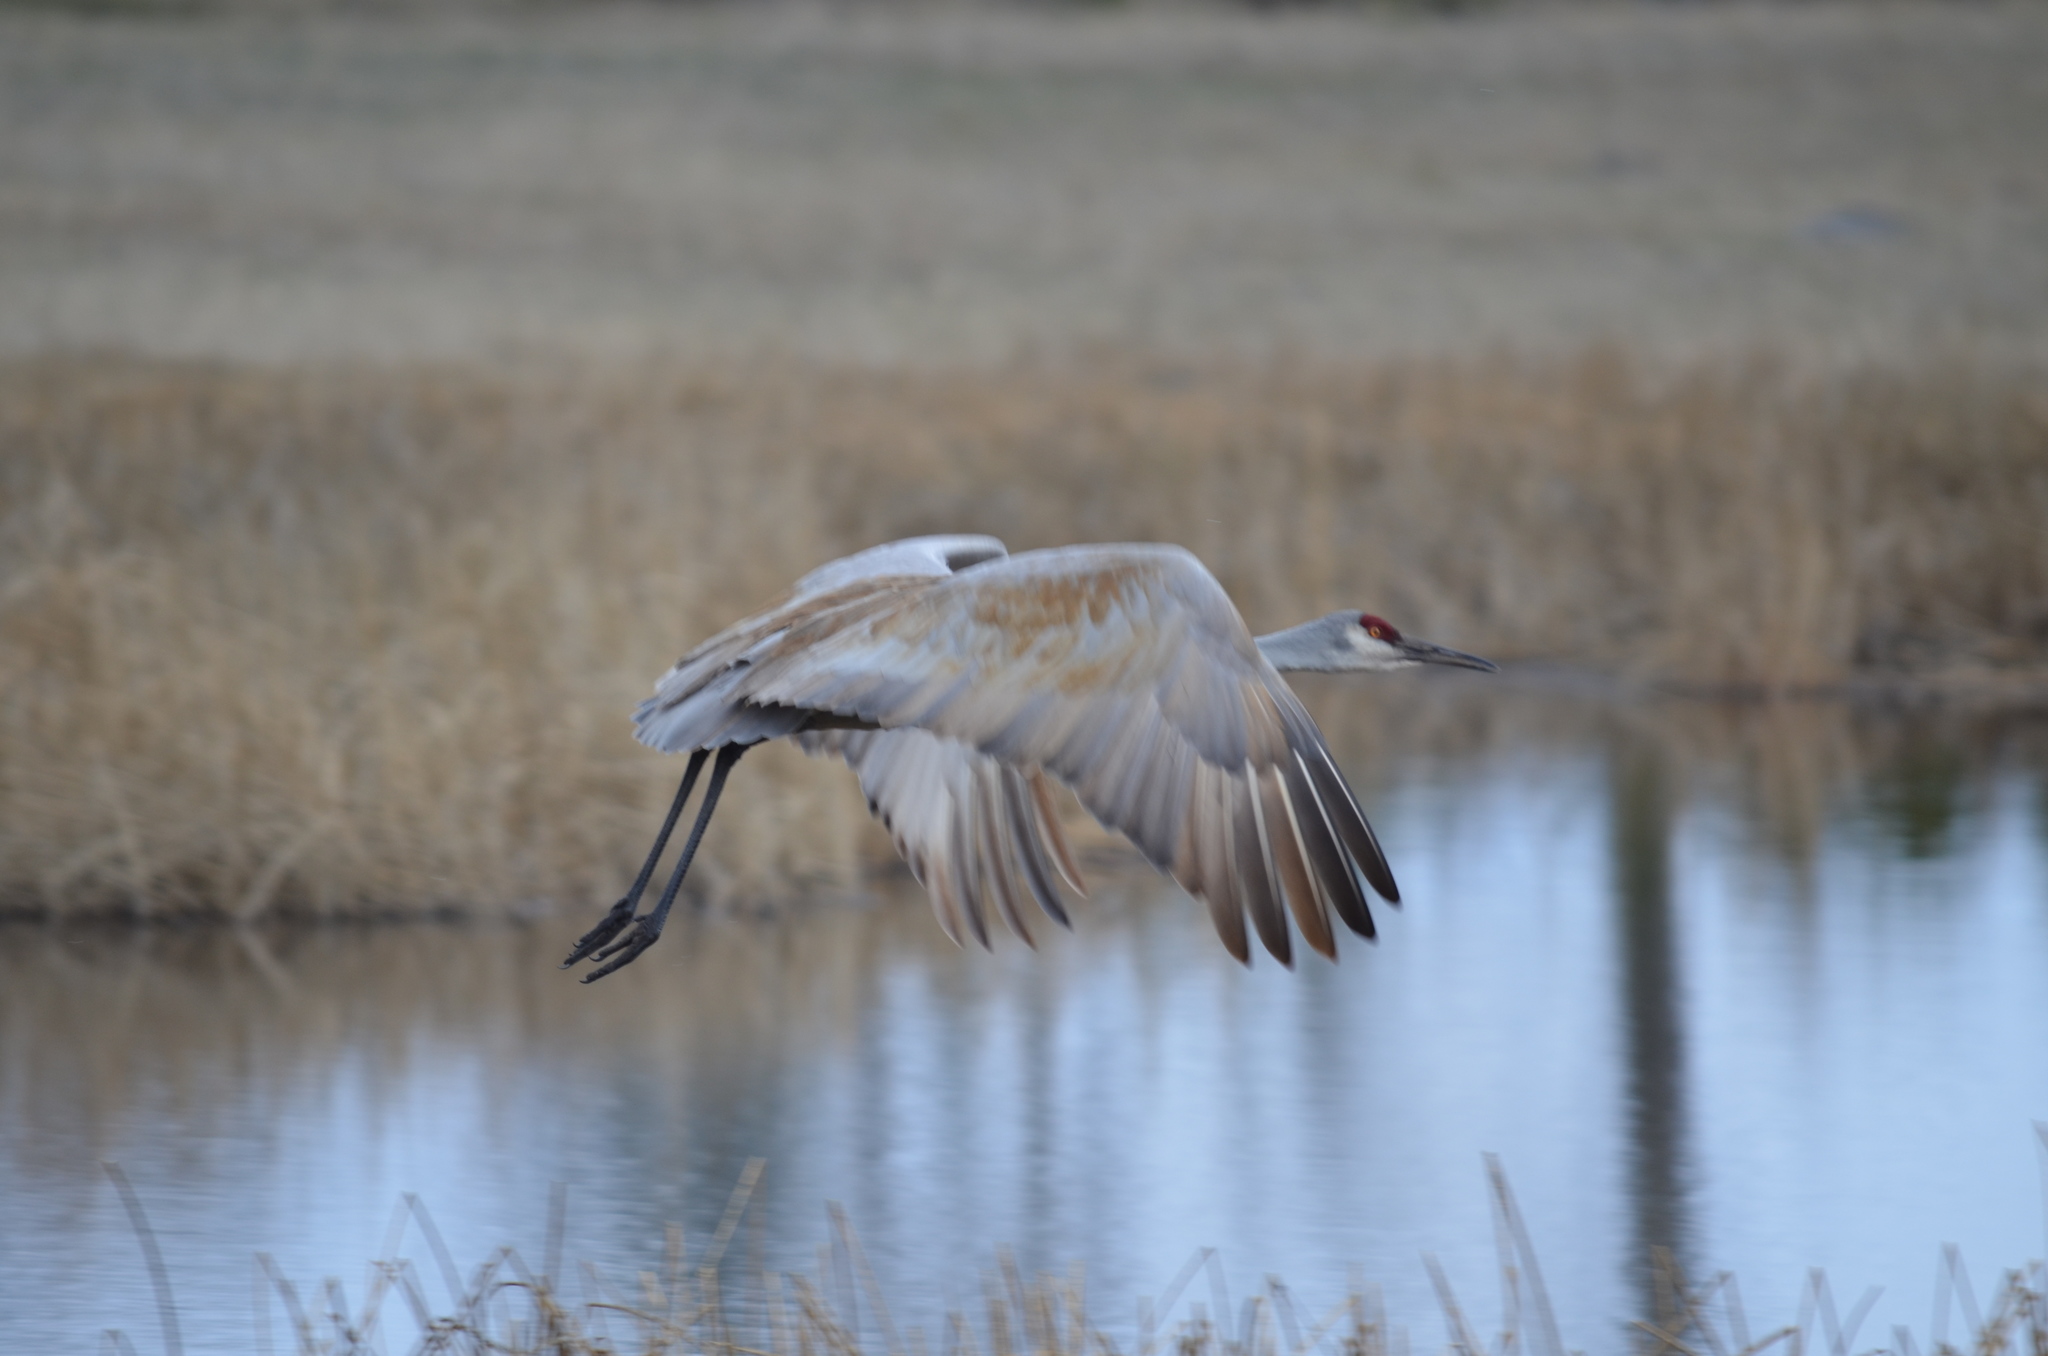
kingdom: Animalia
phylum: Chordata
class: Aves
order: Gruiformes
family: Gruidae
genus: Grus
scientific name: Grus canadensis
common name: Sandhill crane
